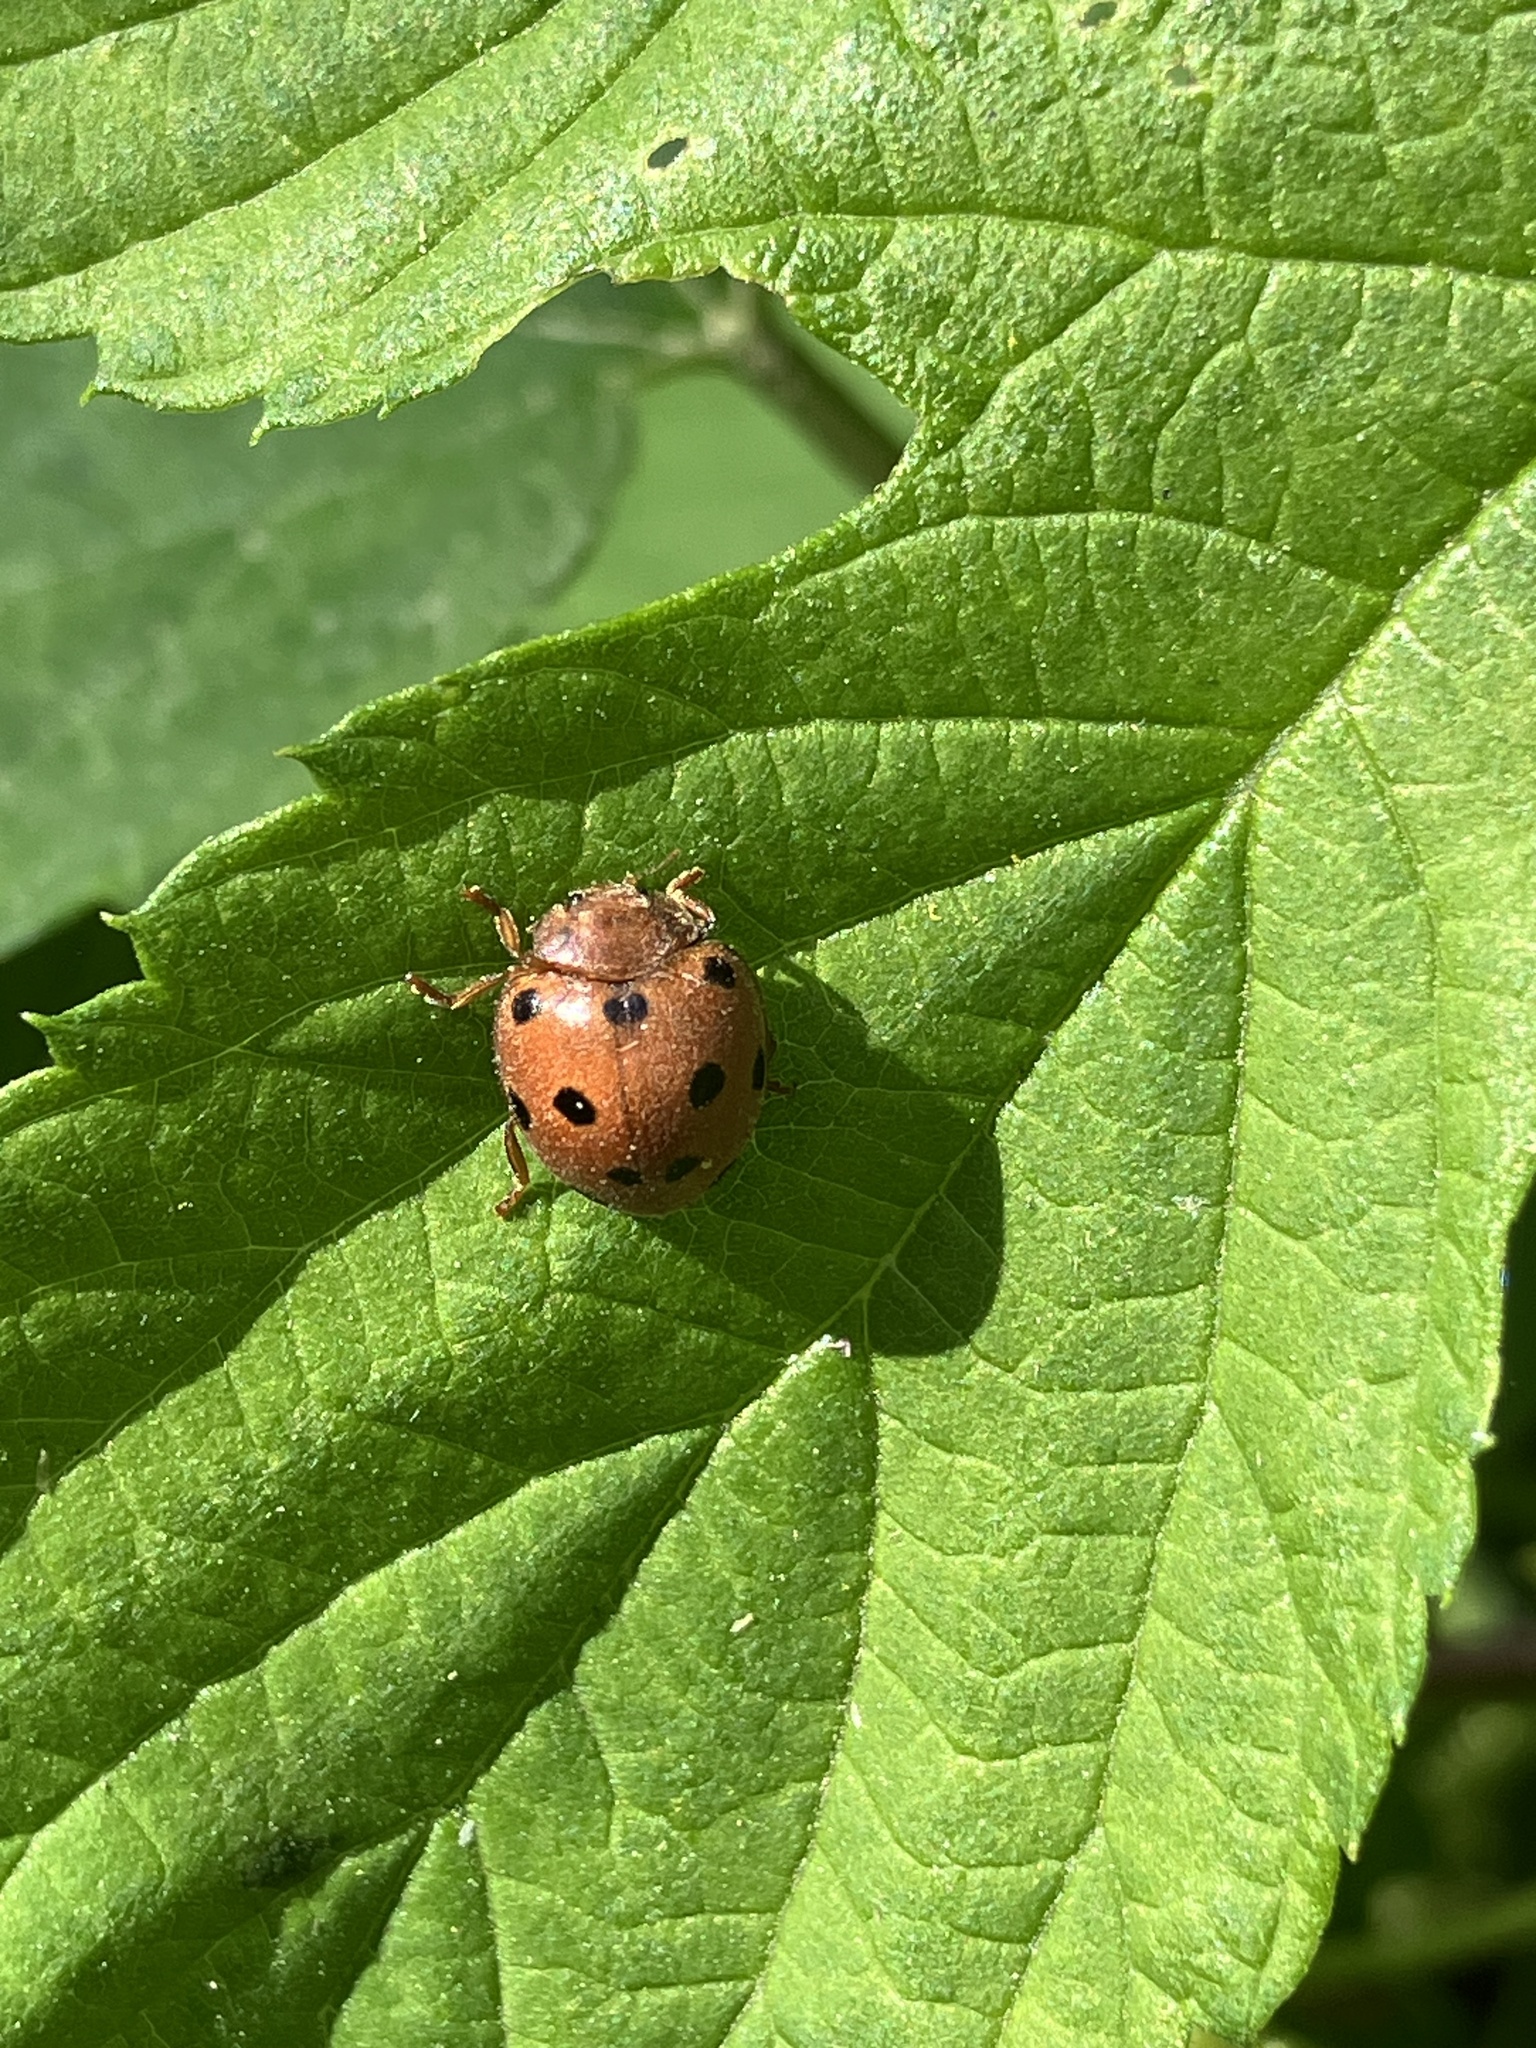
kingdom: Animalia
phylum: Arthropoda
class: Insecta
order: Coleoptera
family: Coccinellidae
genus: Henosepilachna
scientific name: Henosepilachna argus
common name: Bryony ladybird
